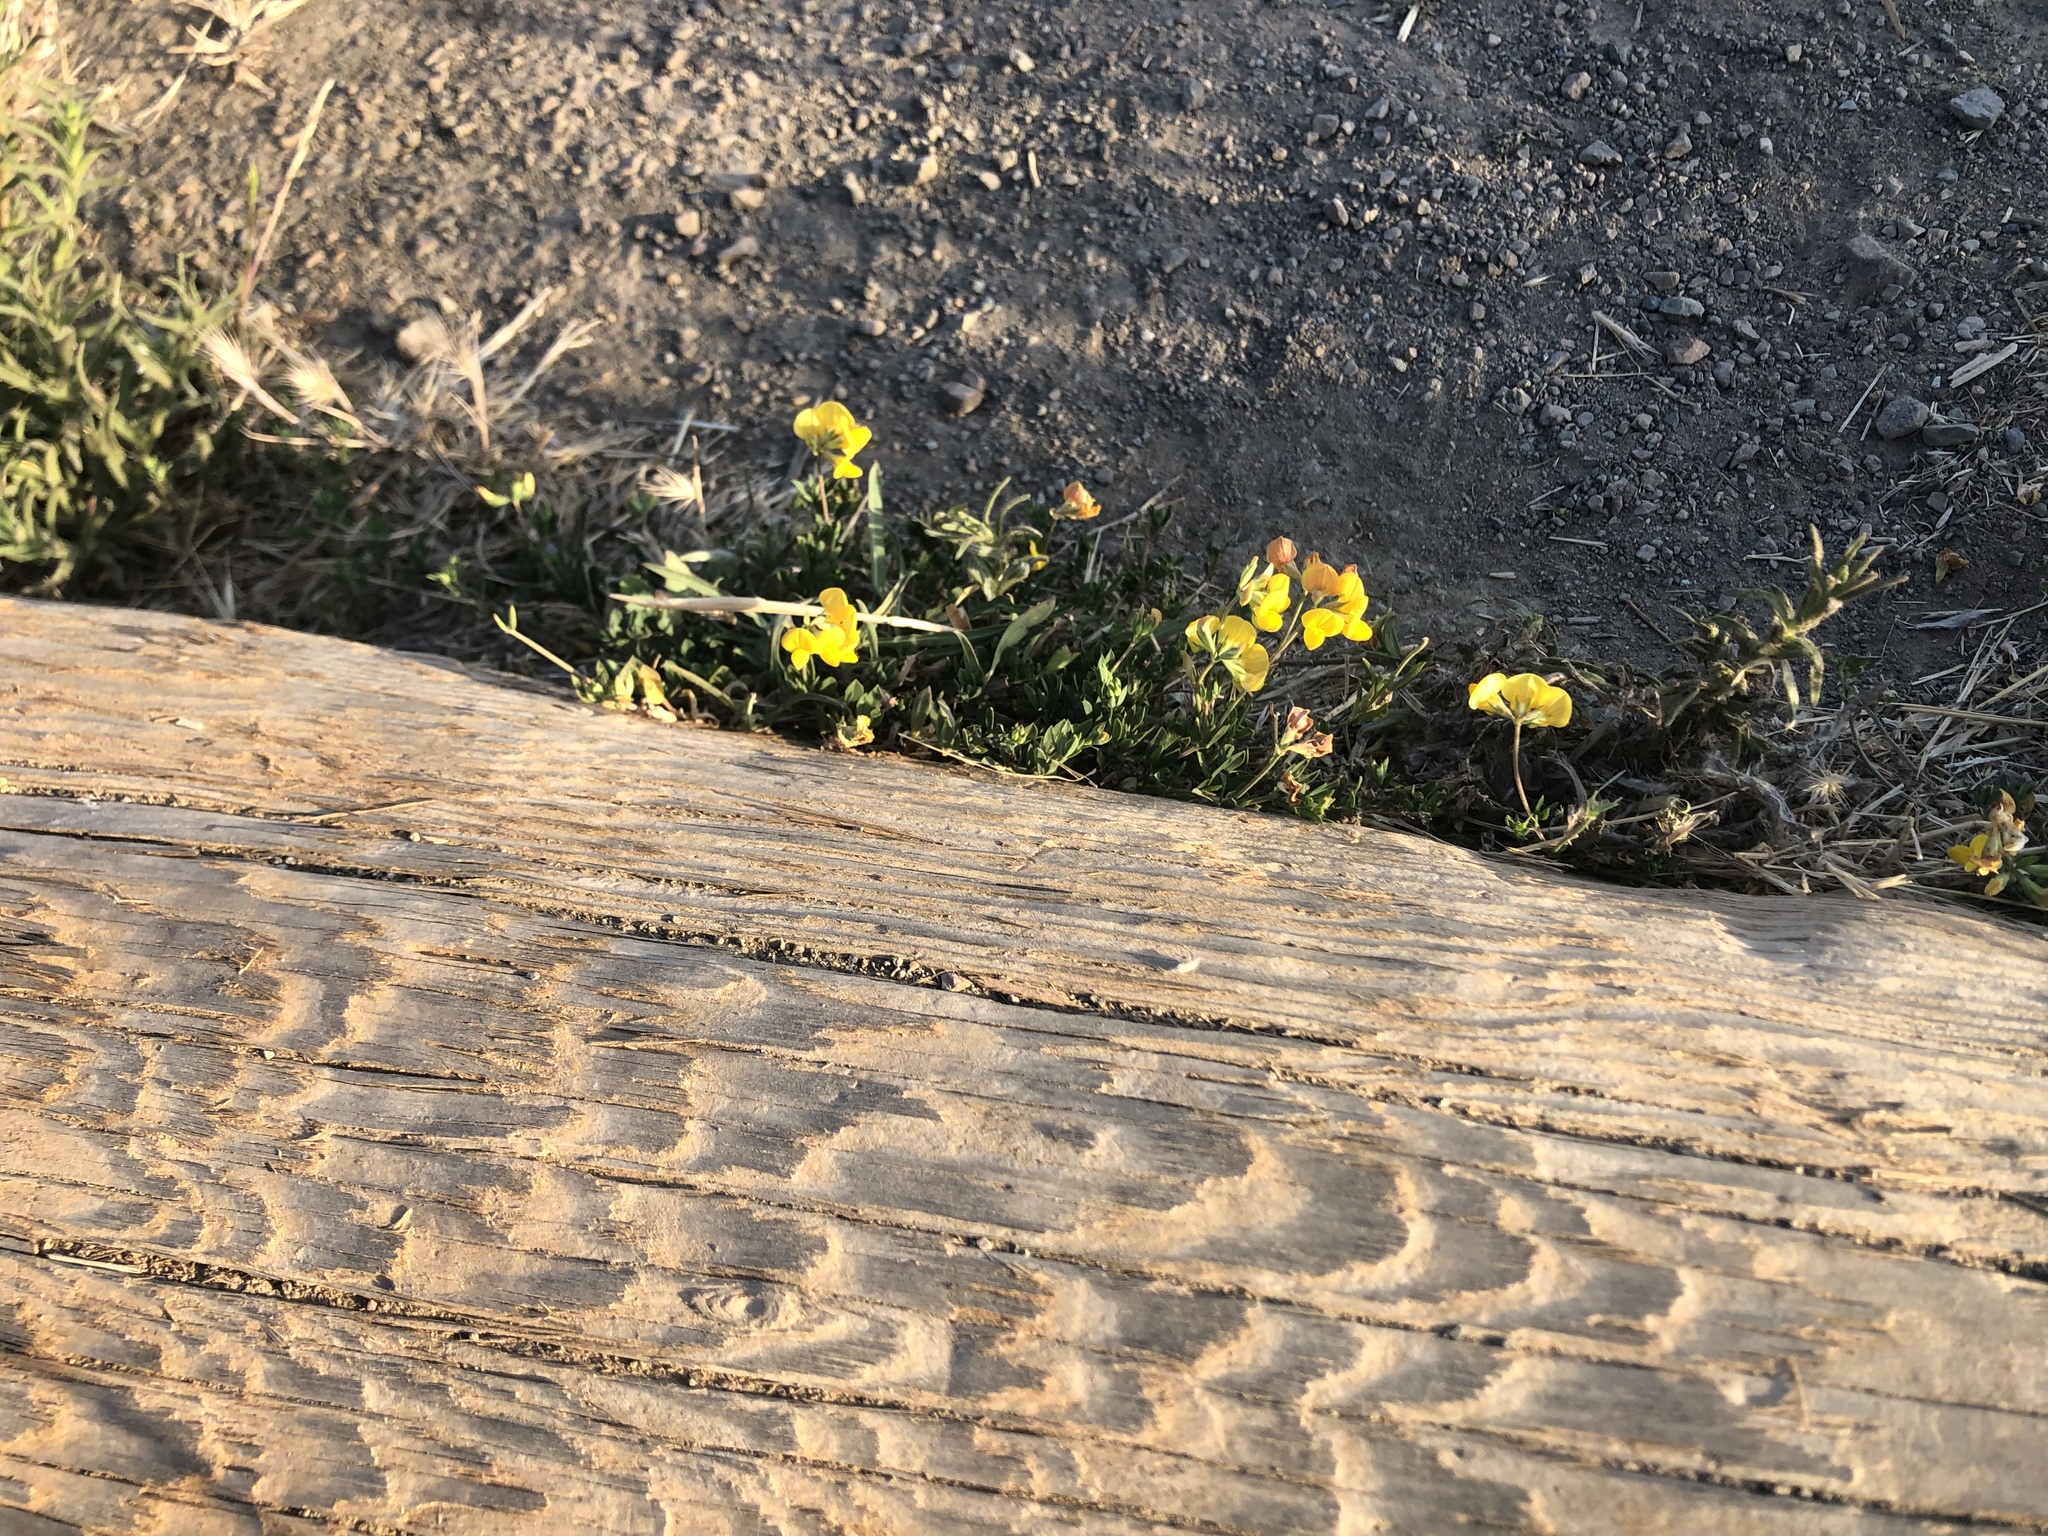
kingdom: Plantae
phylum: Tracheophyta
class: Magnoliopsida
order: Fabales
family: Fabaceae
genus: Lotus
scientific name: Lotus corniculatus
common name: Common bird's-foot-trefoil
